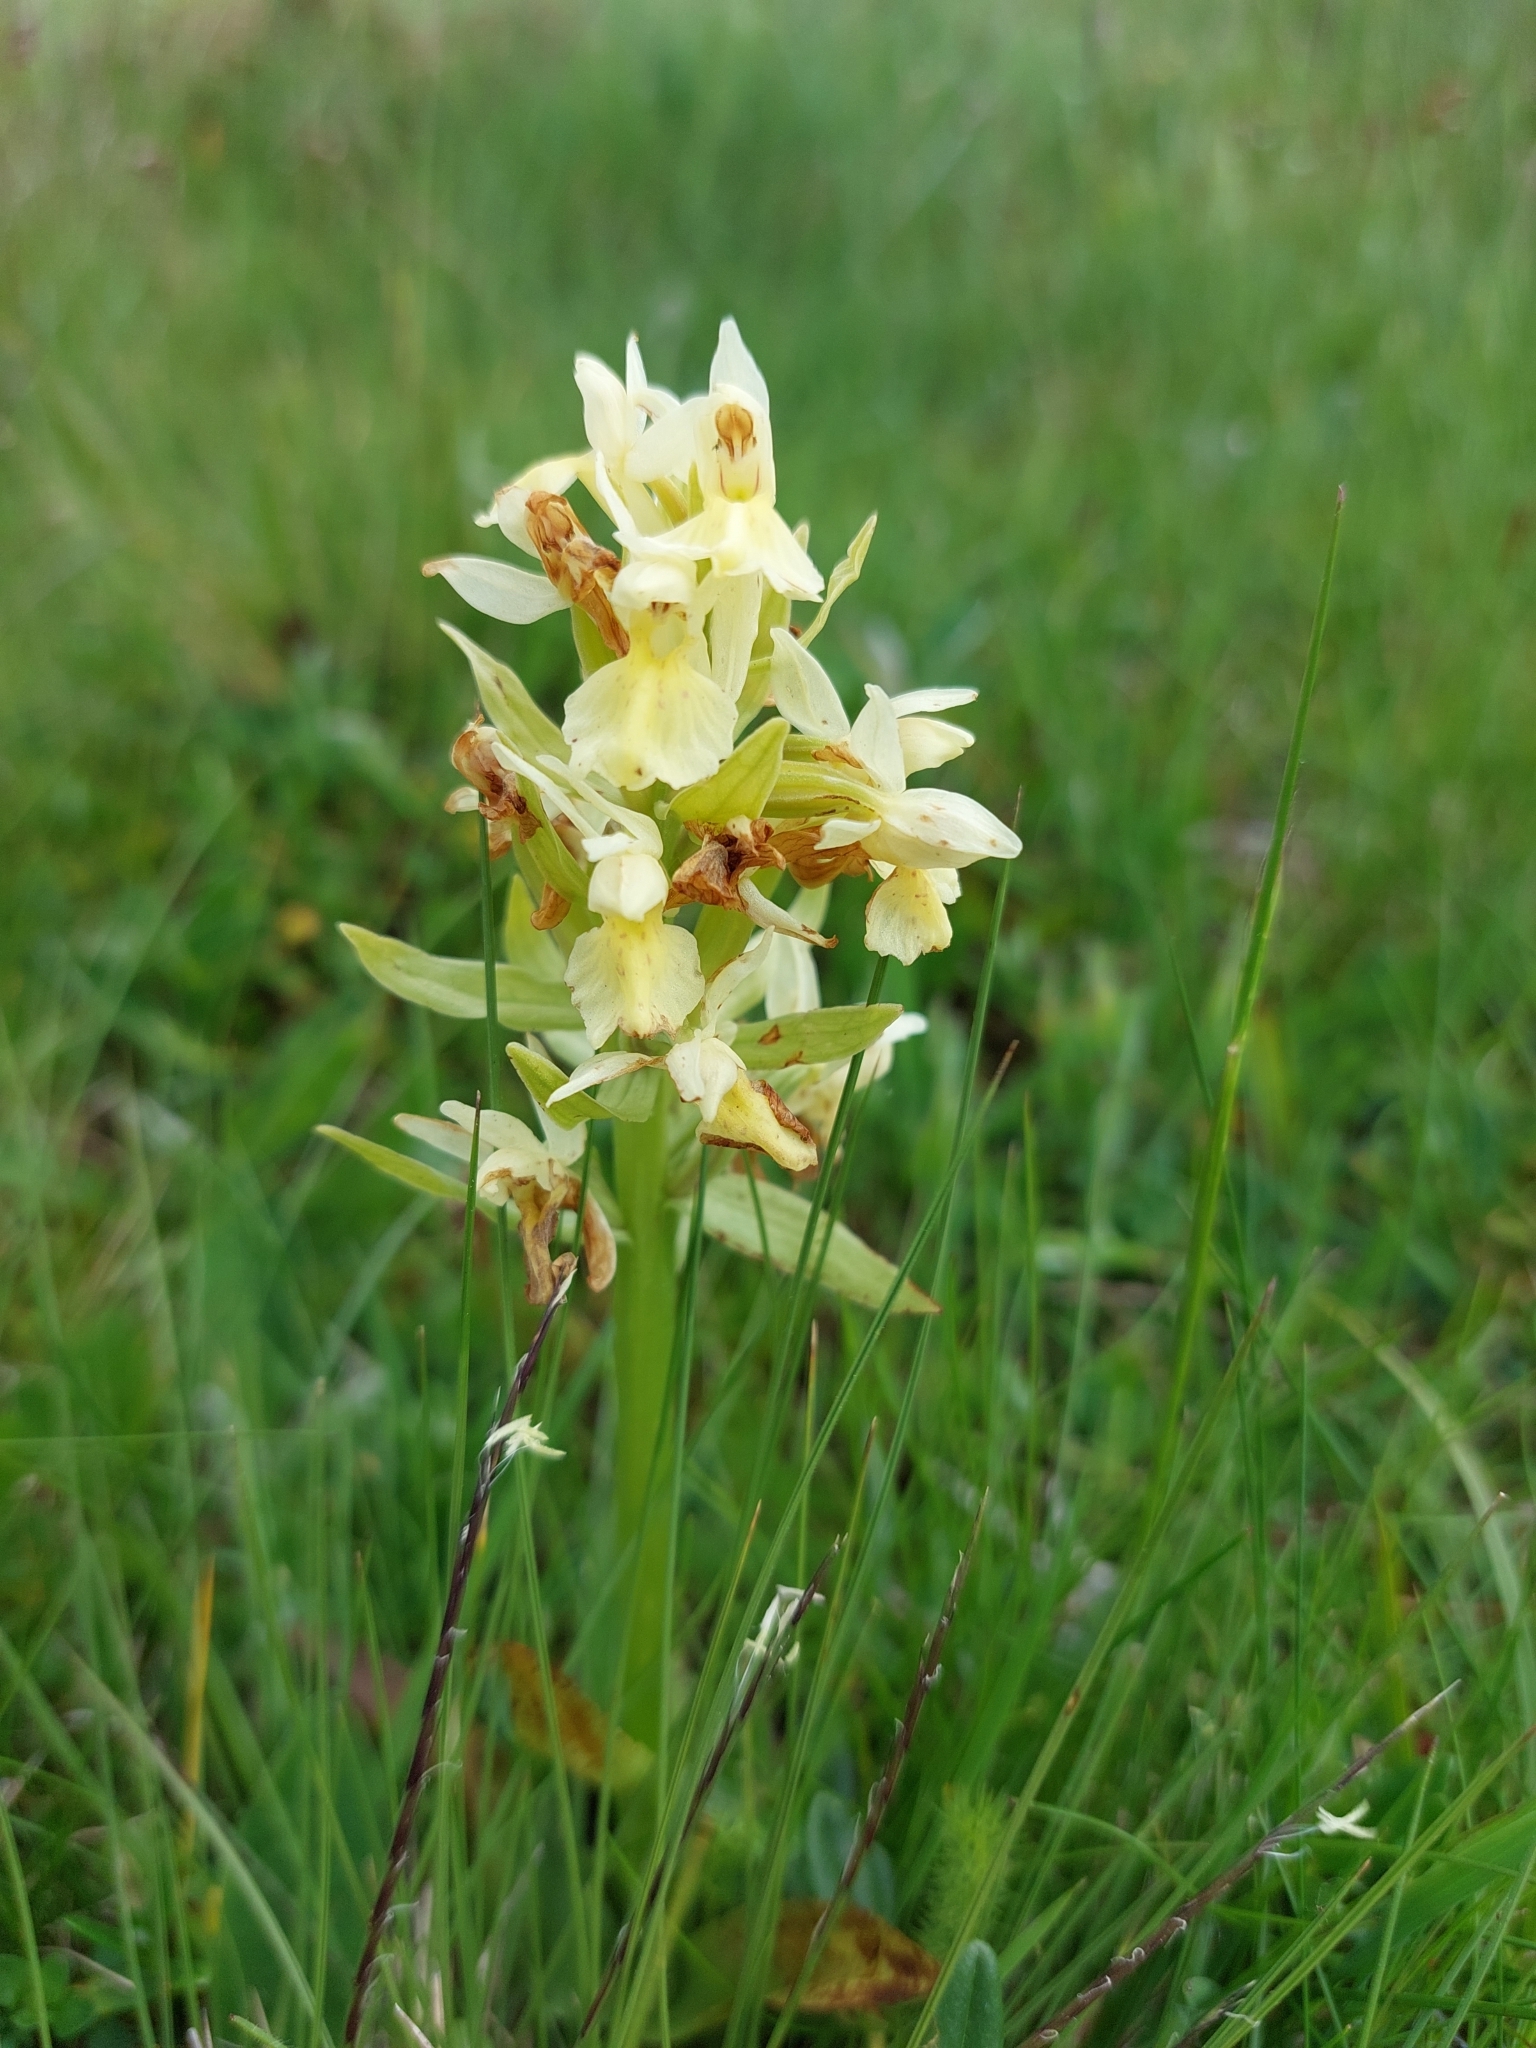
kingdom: Plantae
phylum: Tracheophyta
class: Liliopsida
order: Asparagales
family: Orchidaceae
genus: Dactylorhiza
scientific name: Dactylorhiza sambucina
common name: Elder-flowered orchid
